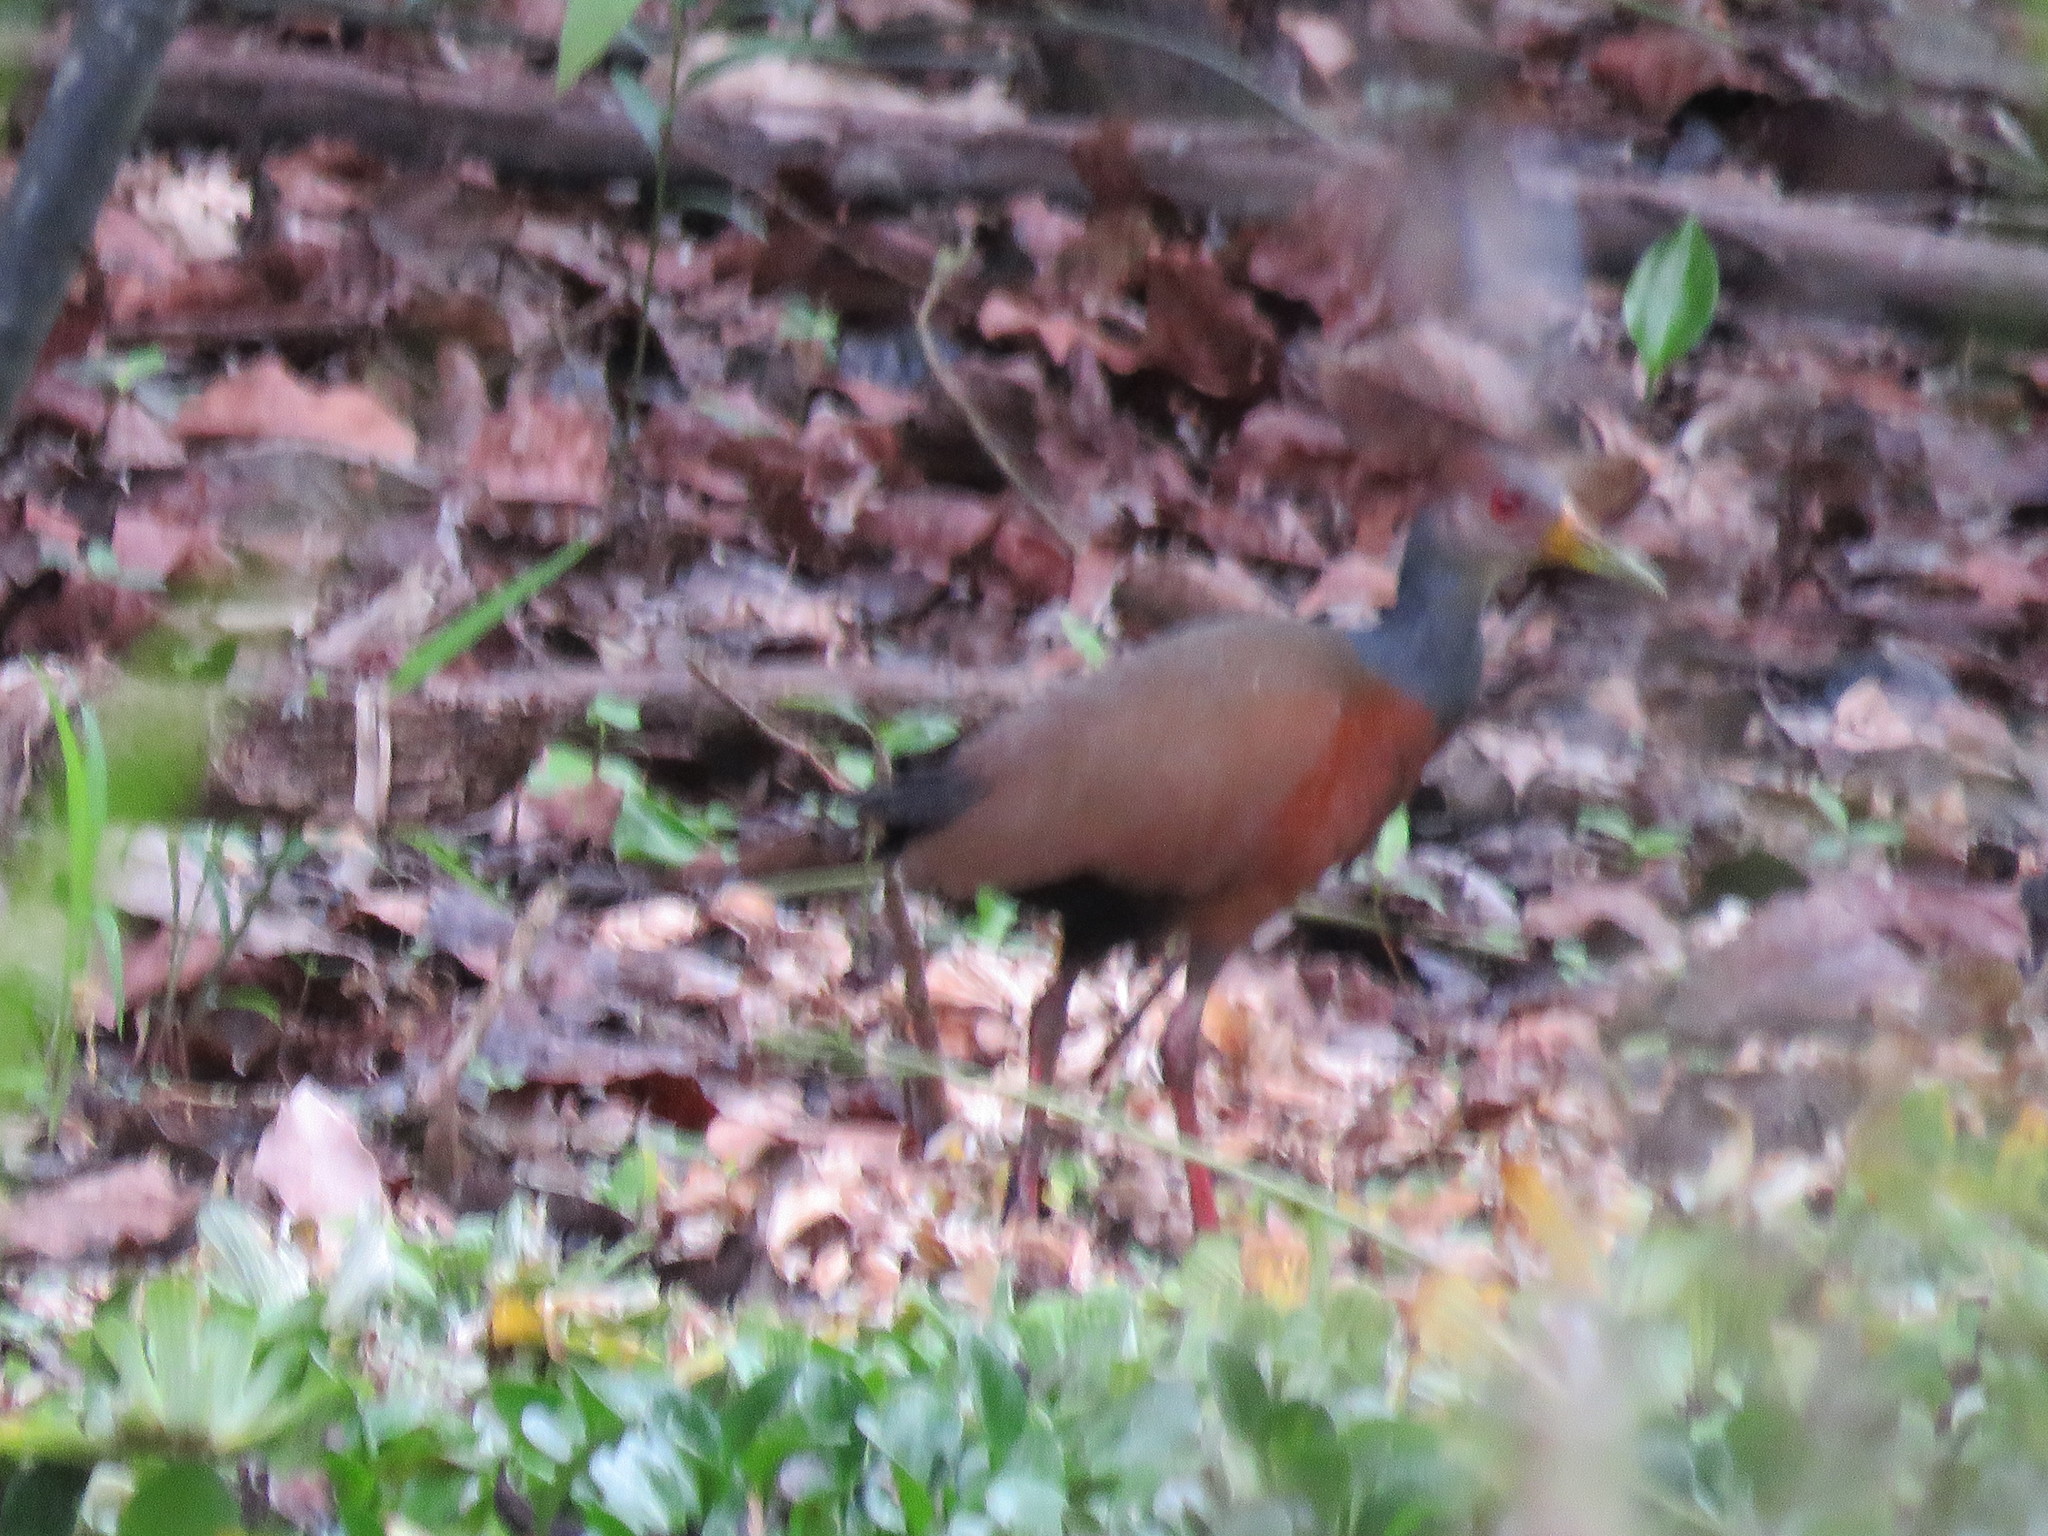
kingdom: Animalia
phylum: Chordata
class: Aves
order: Gruiformes
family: Rallidae
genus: Aramides
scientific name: Aramides cajanea
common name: Gray-necked wood-rail
